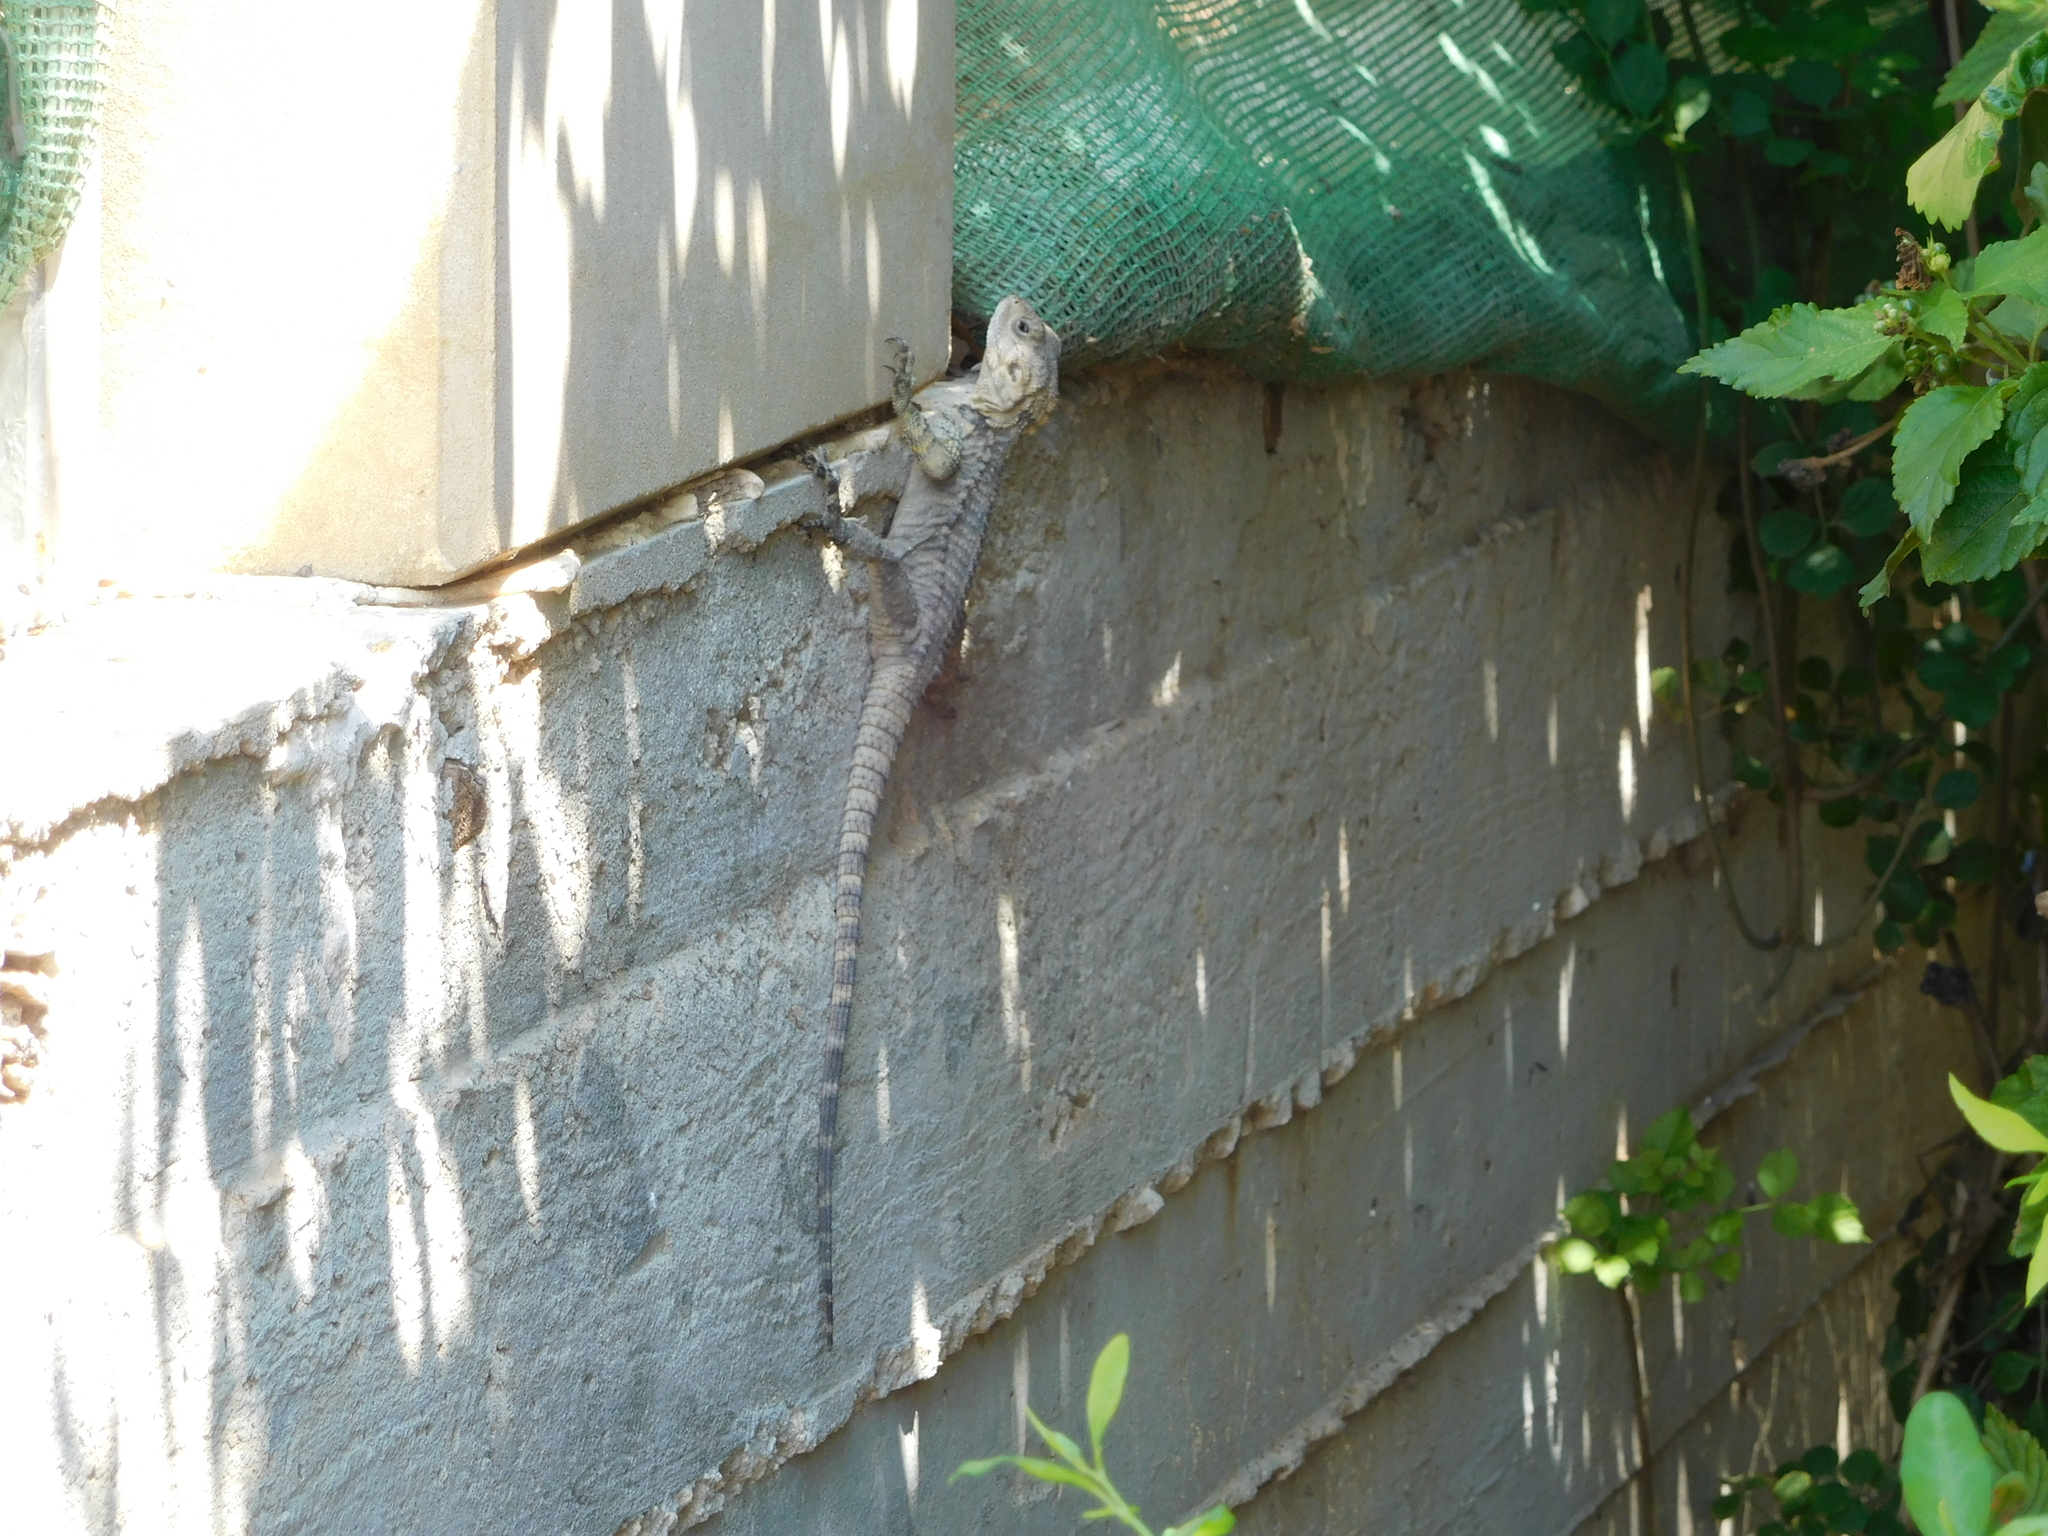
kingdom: Animalia
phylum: Chordata
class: Squamata
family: Agamidae
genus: Laudakia
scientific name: Laudakia
